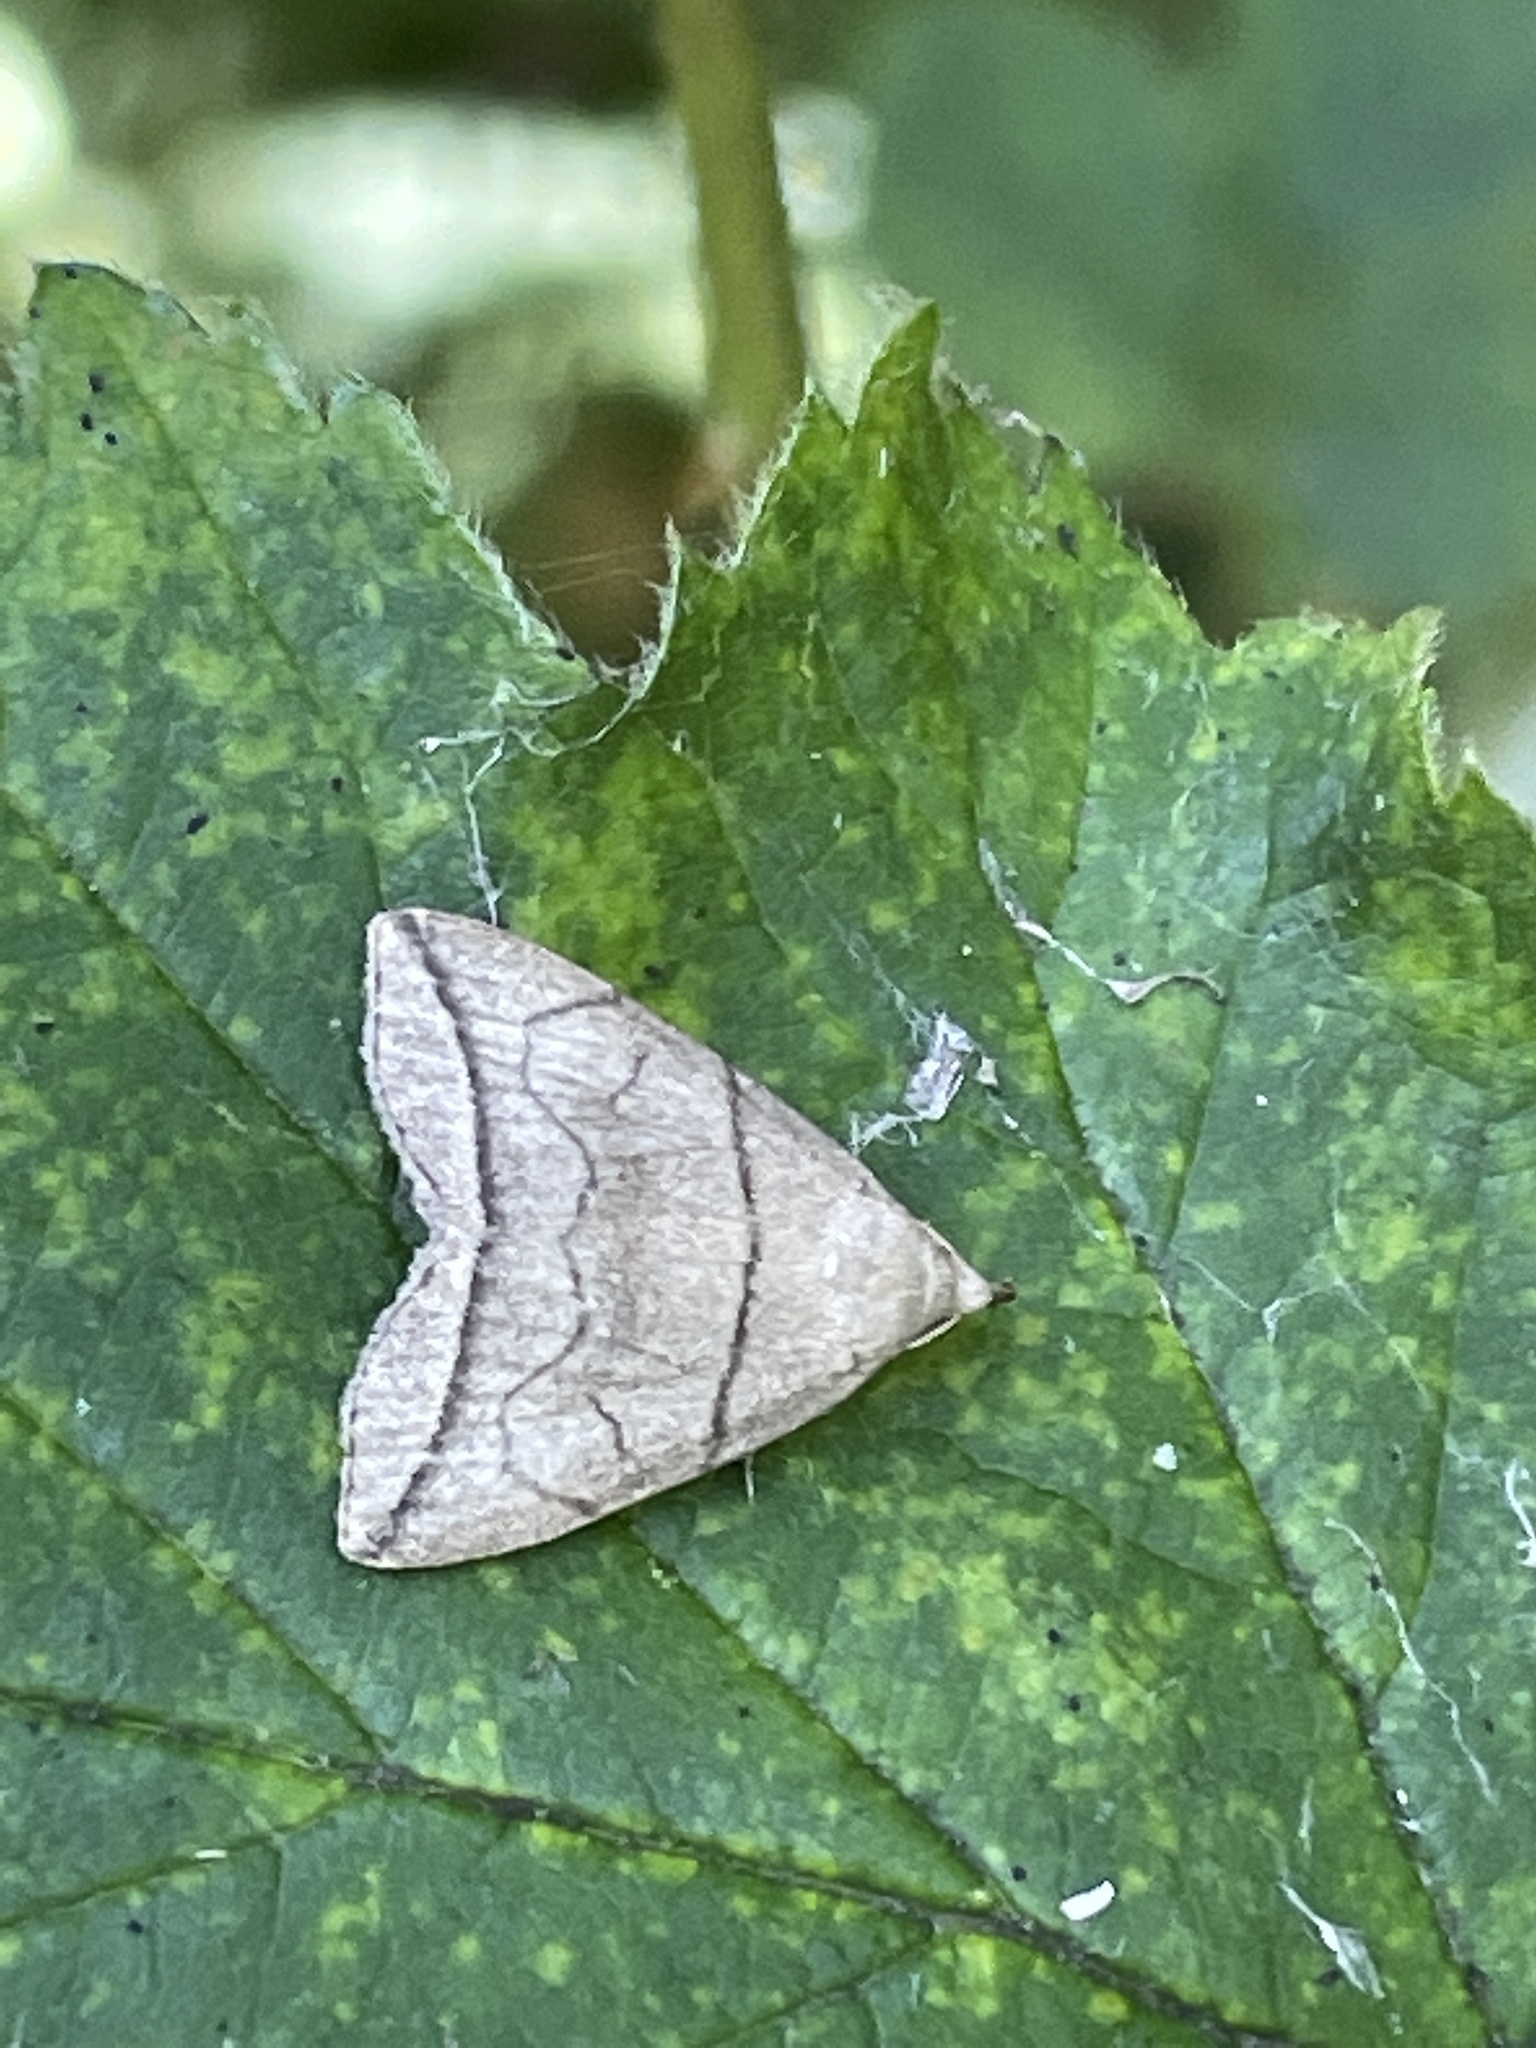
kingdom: Animalia
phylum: Arthropoda
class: Insecta
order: Lepidoptera
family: Erebidae
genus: Herminia
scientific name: Herminia grisealis
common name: Small fan-foot
